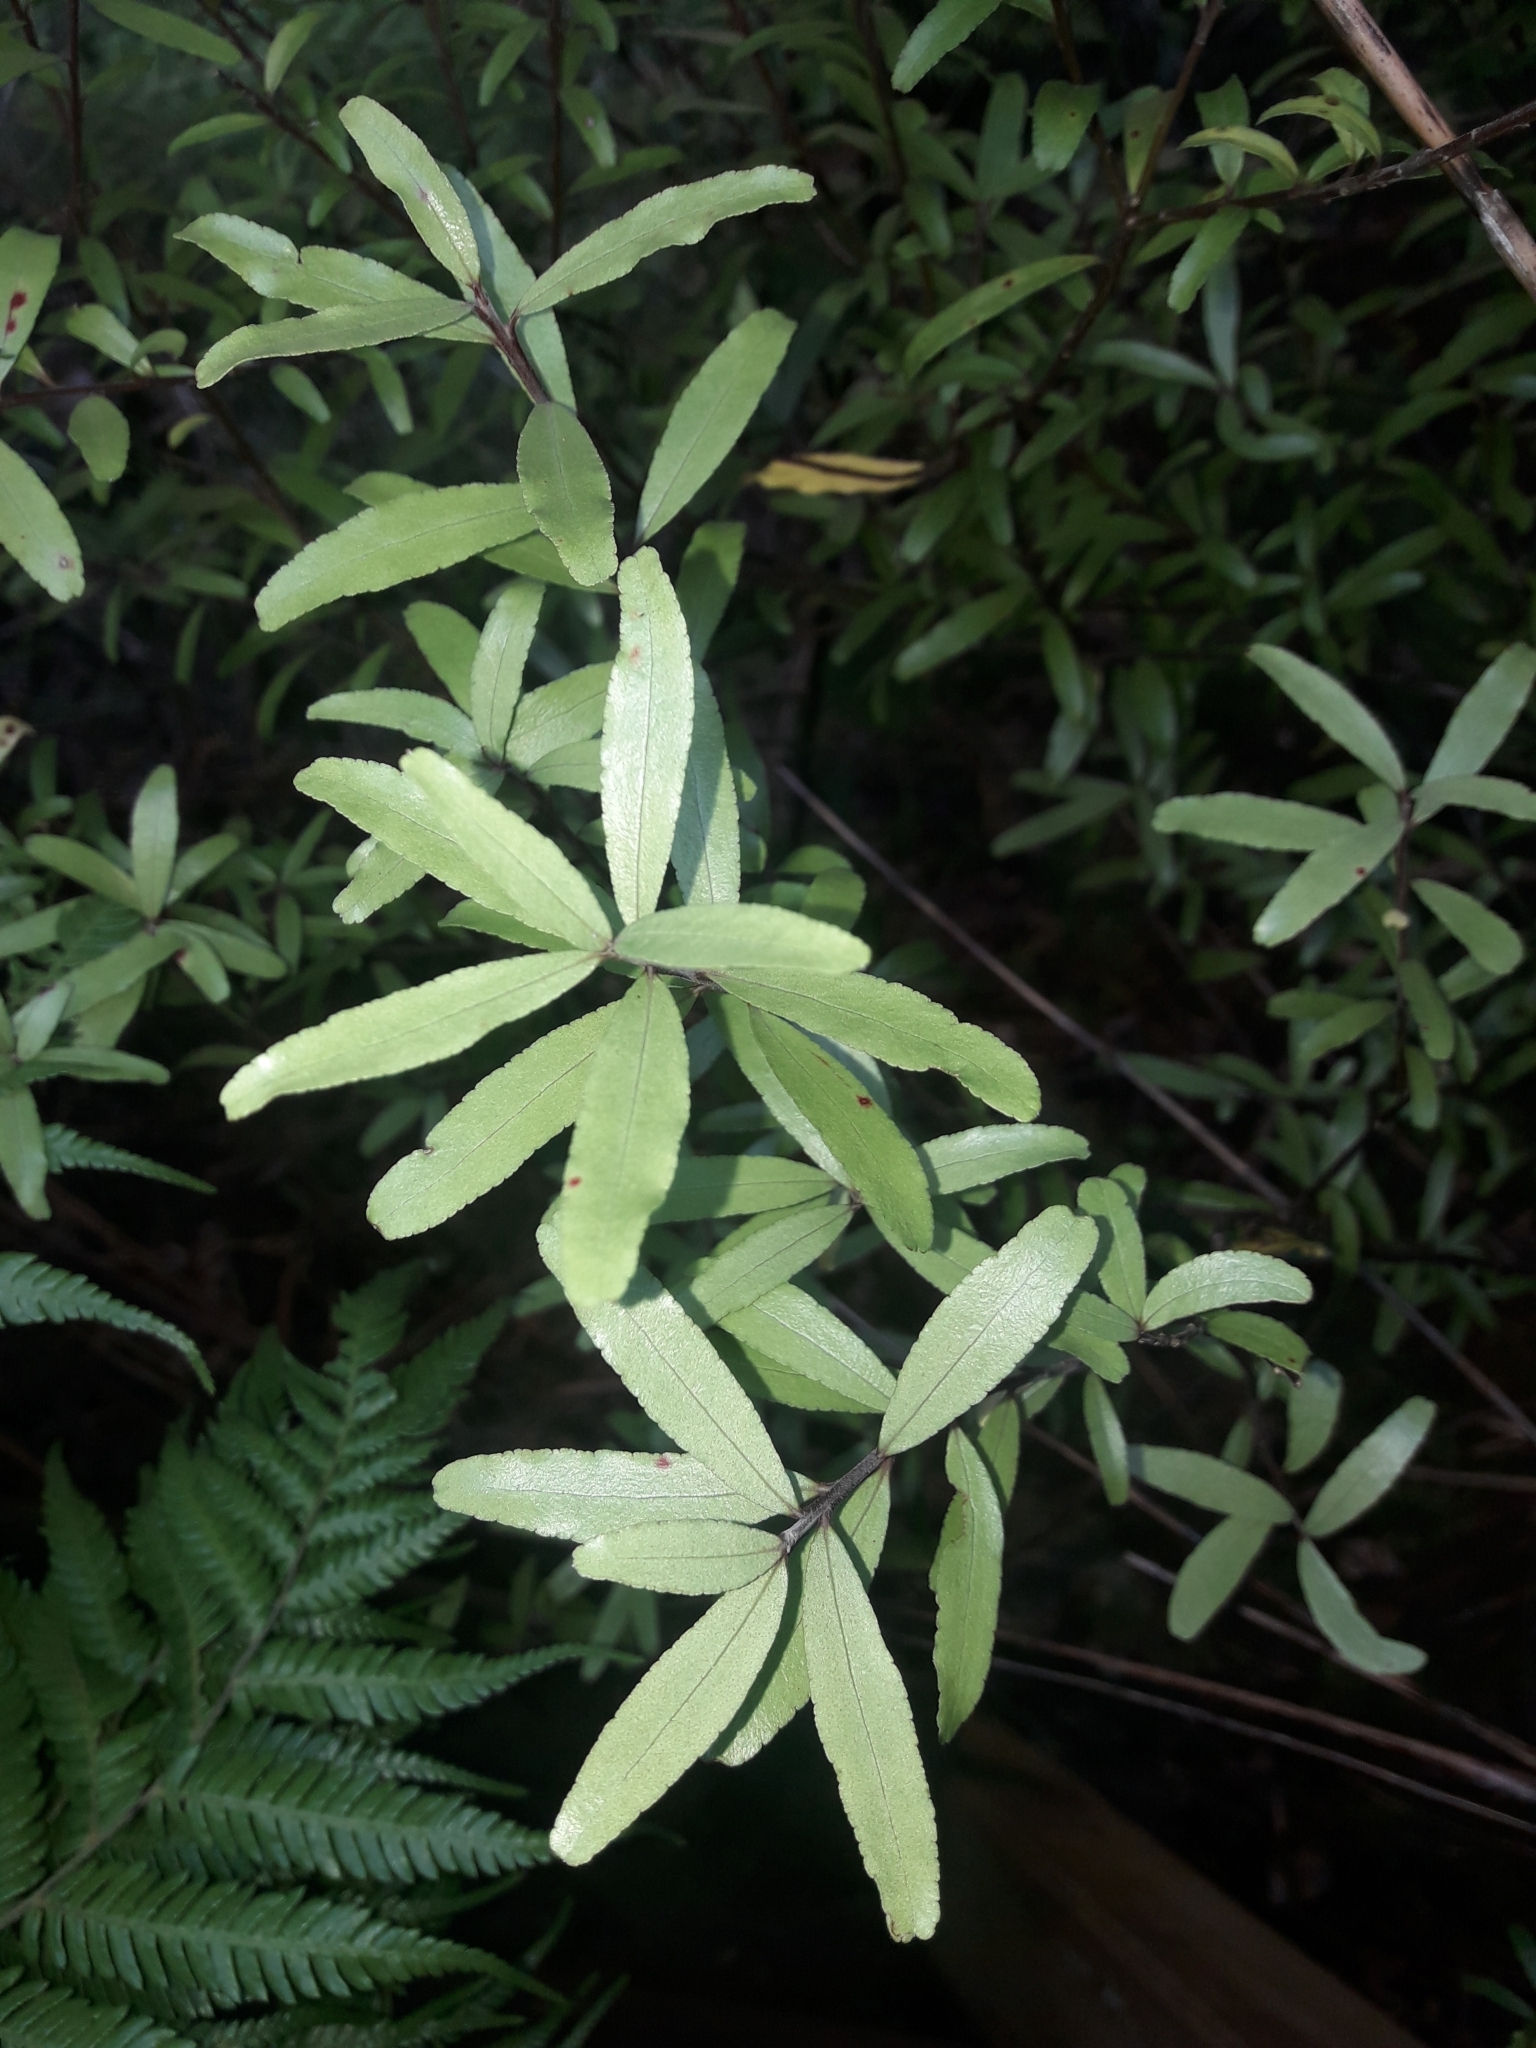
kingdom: Plantae
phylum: Tracheophyta
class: Magnoliopsida
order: Sapindales
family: Rutaceae
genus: Leionema
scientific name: Leionema nudum
